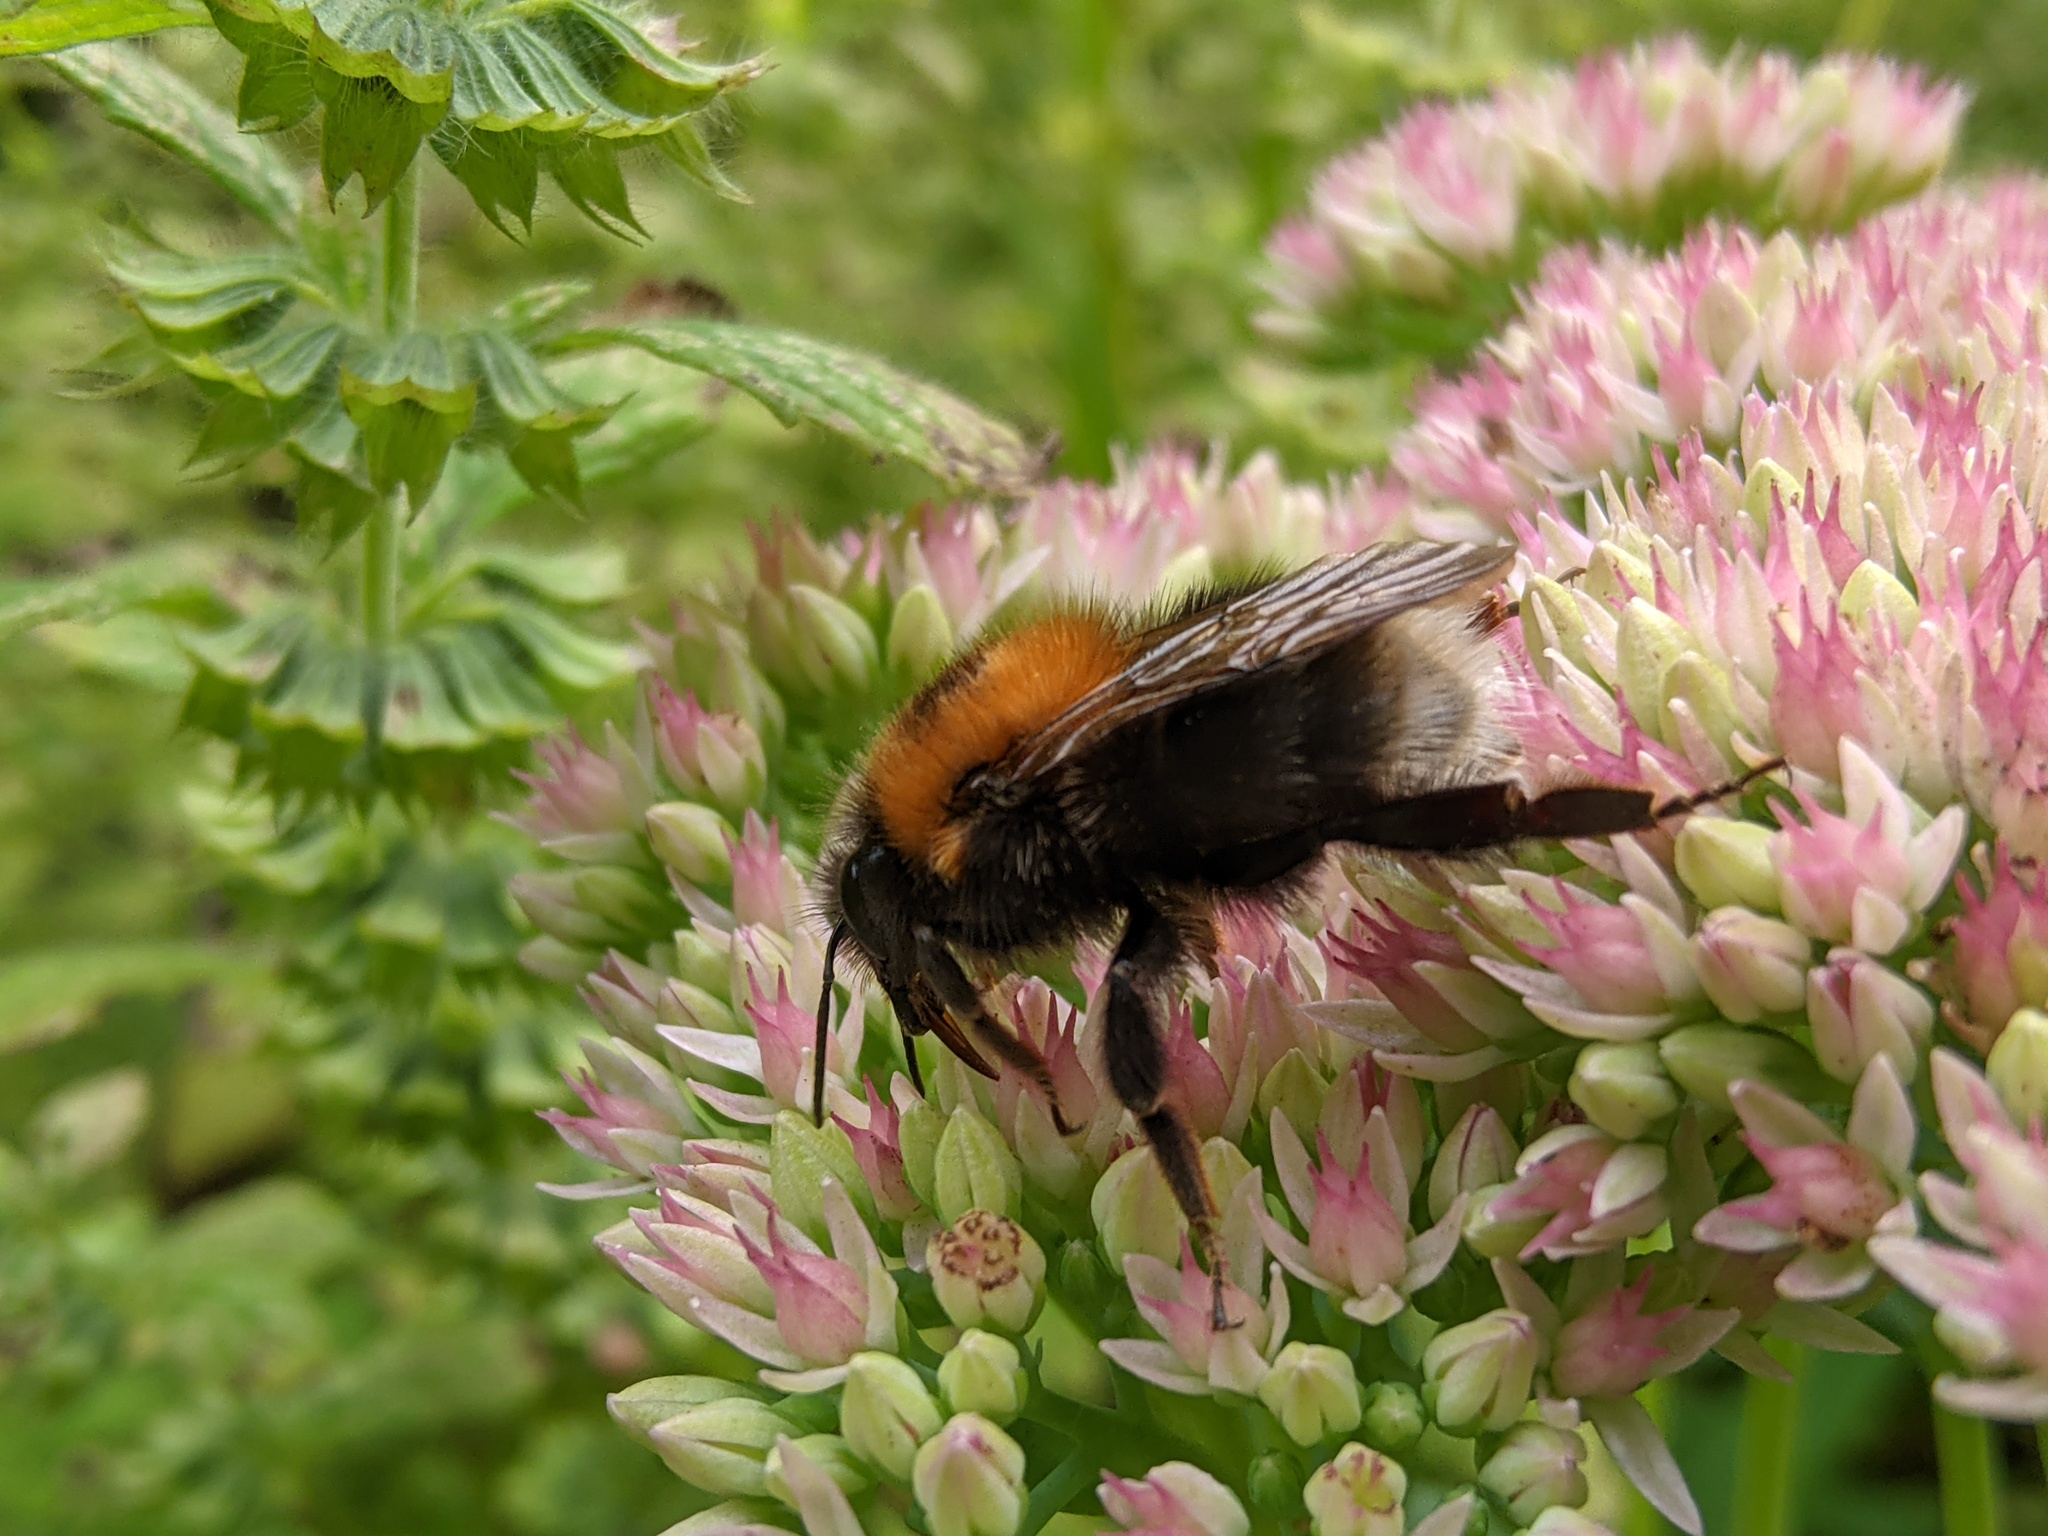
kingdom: Animalia
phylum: Arthropoda
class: Insecta
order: Hymenoptera
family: Apidae
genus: Bombus
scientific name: Bombus hypnorum
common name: New garden bumblebee
